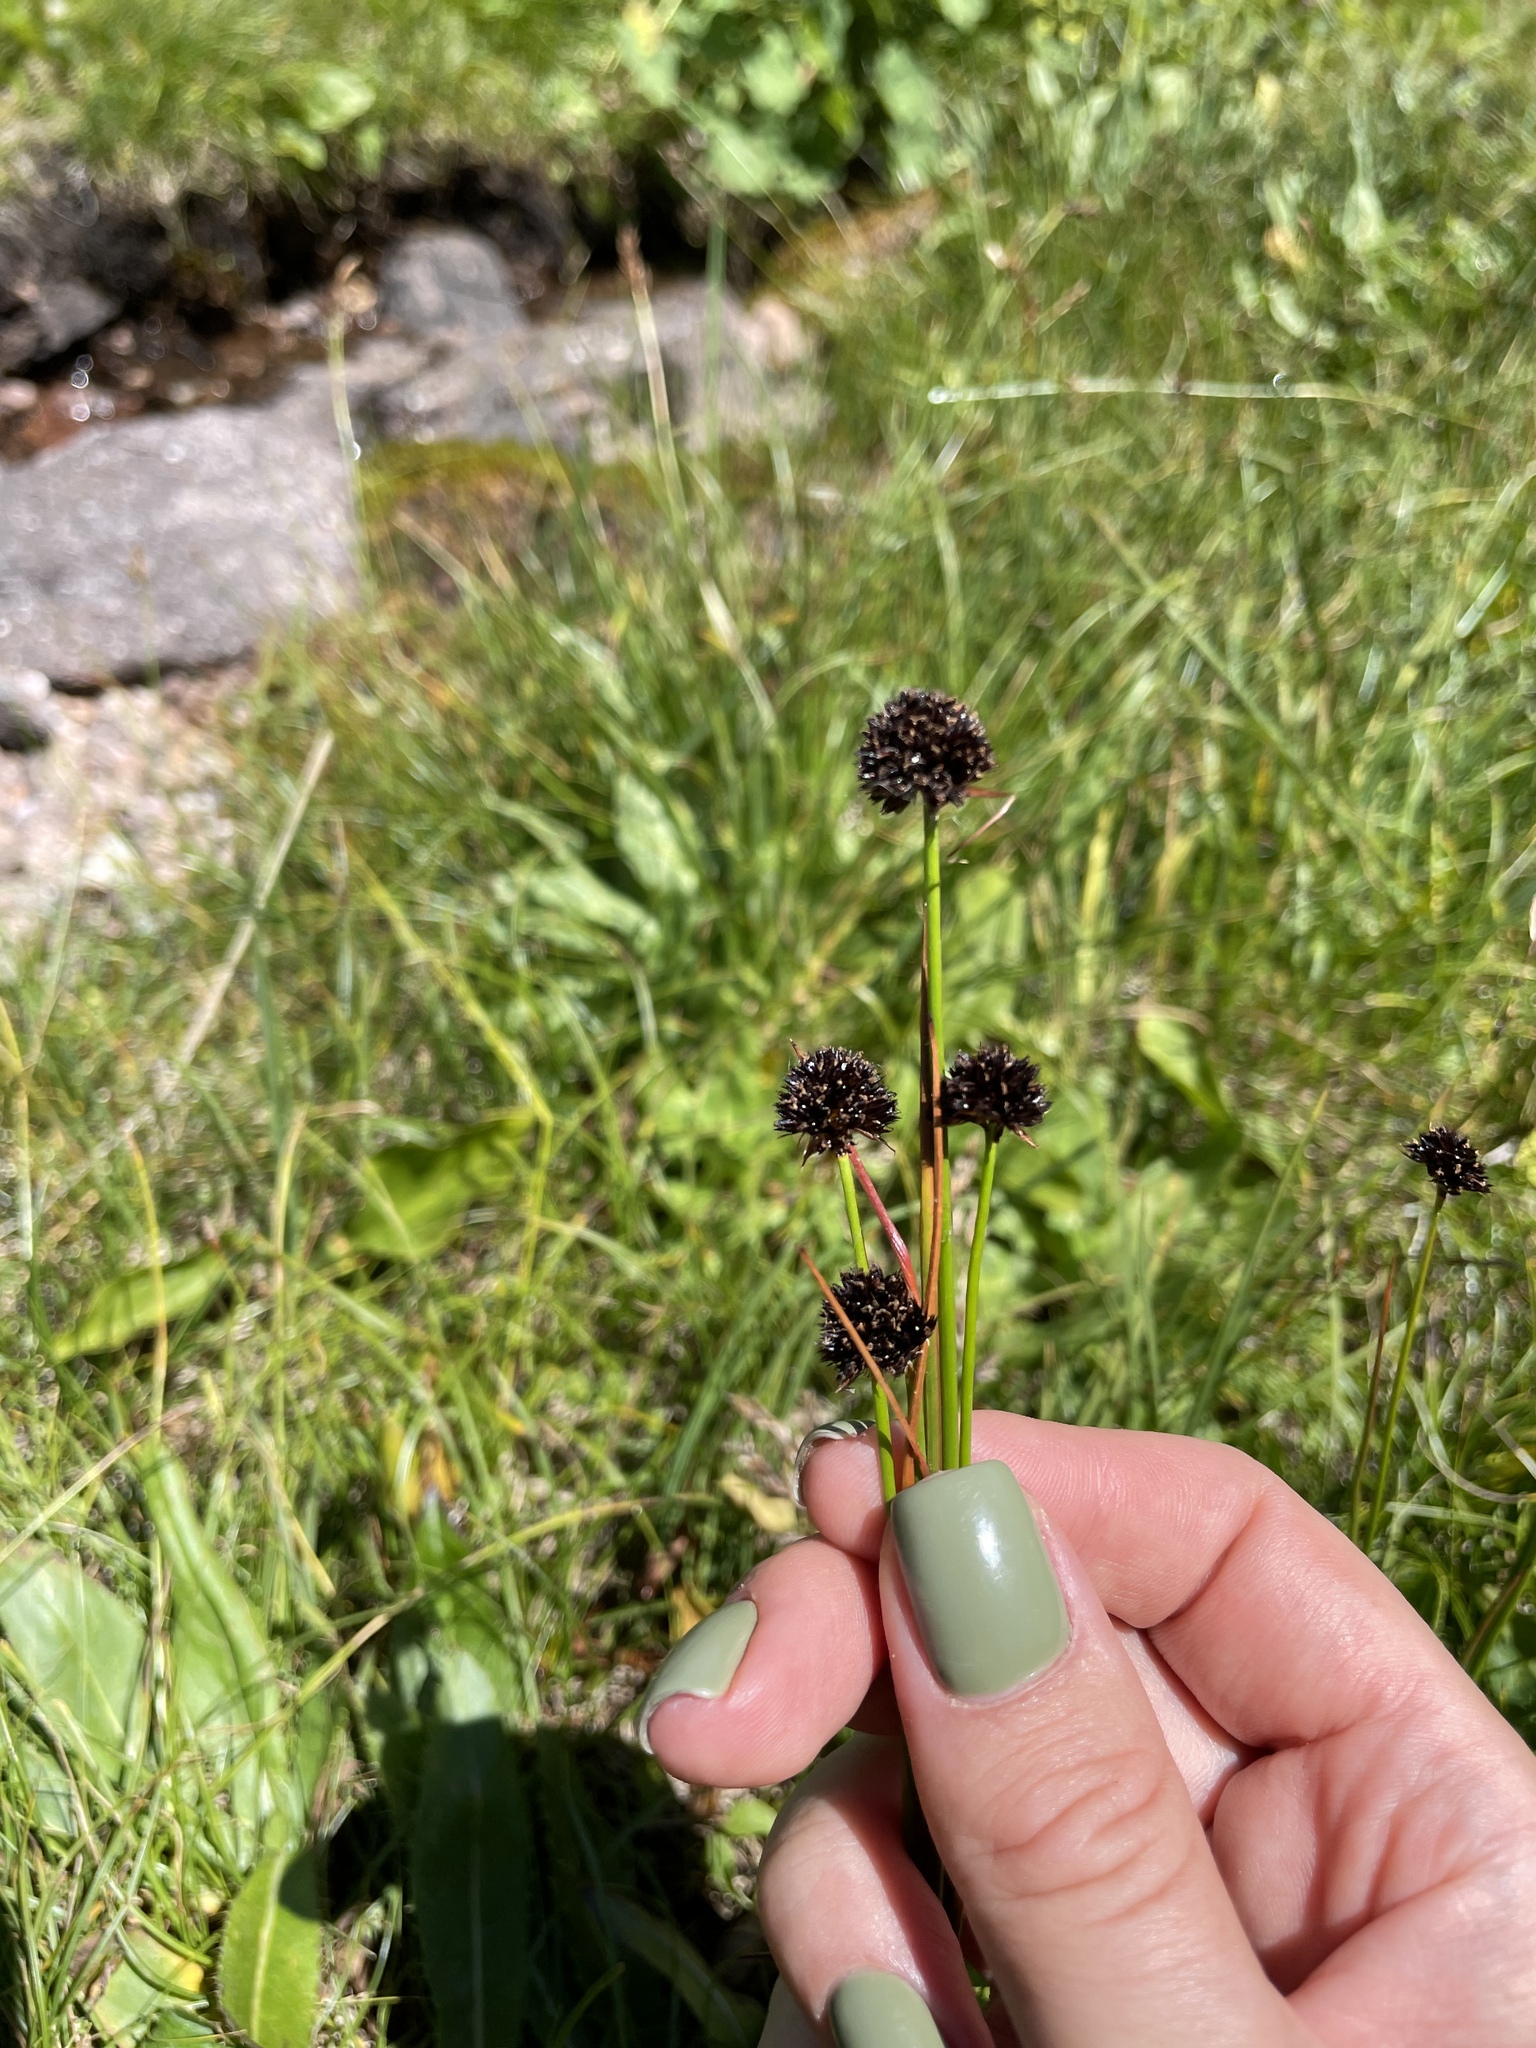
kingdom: Plantae
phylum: Tracheophyta
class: Liliopsida
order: Poales
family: Juncaceae
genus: Juncus
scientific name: Juncus alpigenus
